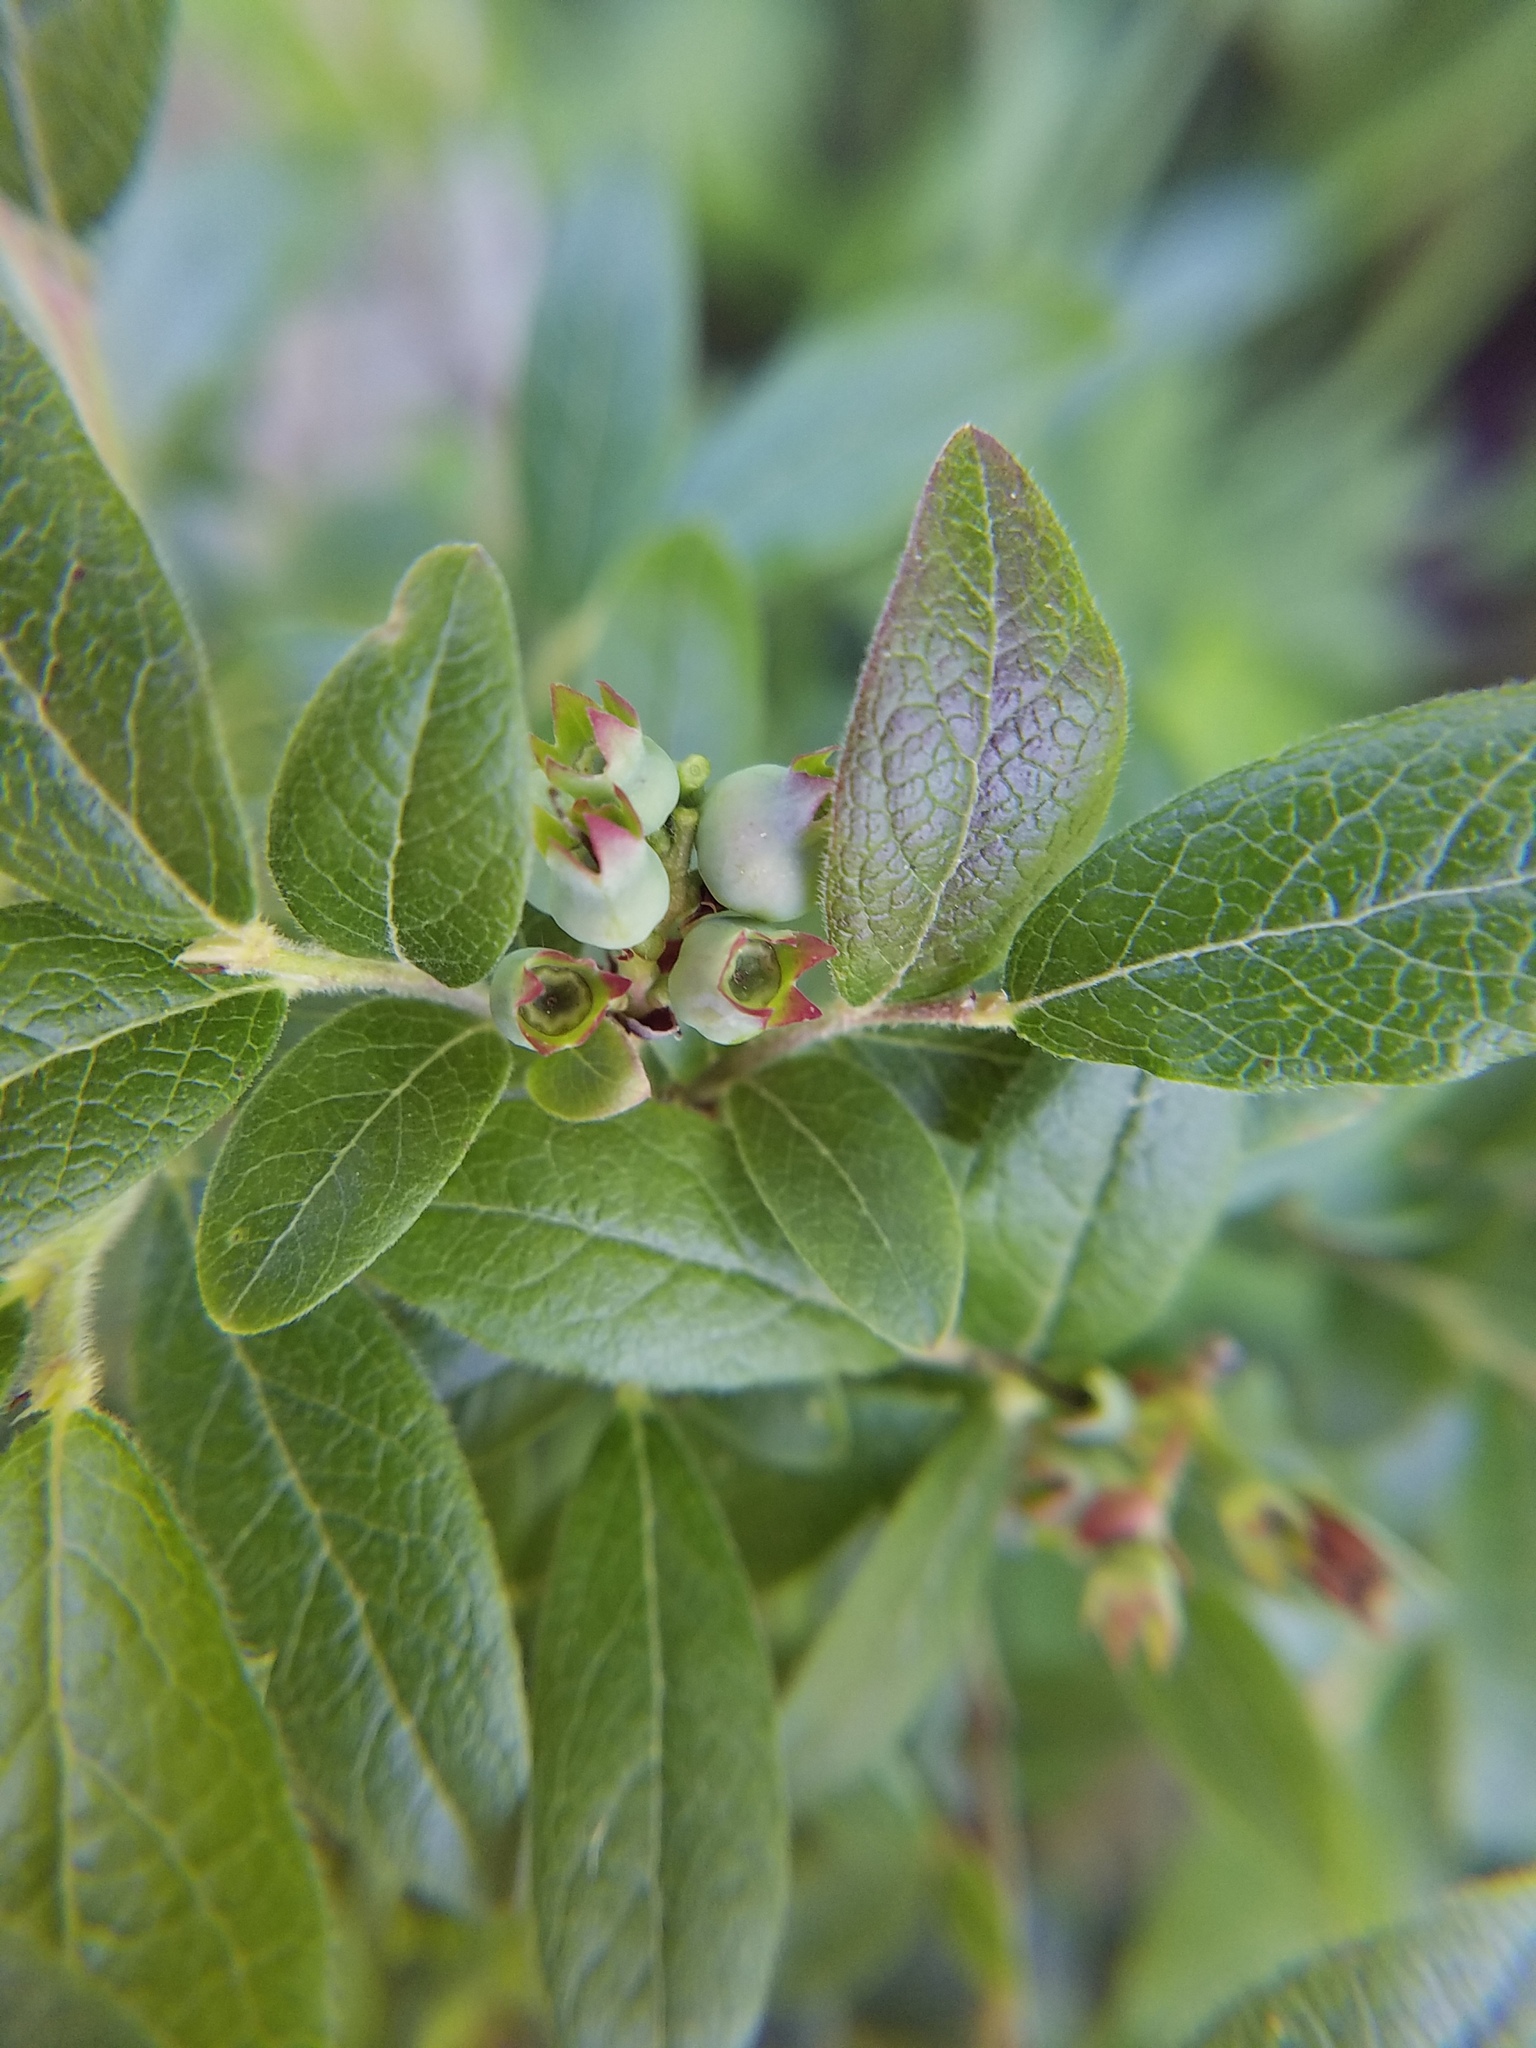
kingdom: Plantae
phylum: Tracheophyta
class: Magnoliopsida
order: Ericales
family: Ericaceae
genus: Vaccinium
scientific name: Vaccinium myrtilloides
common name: Canada blueberry
